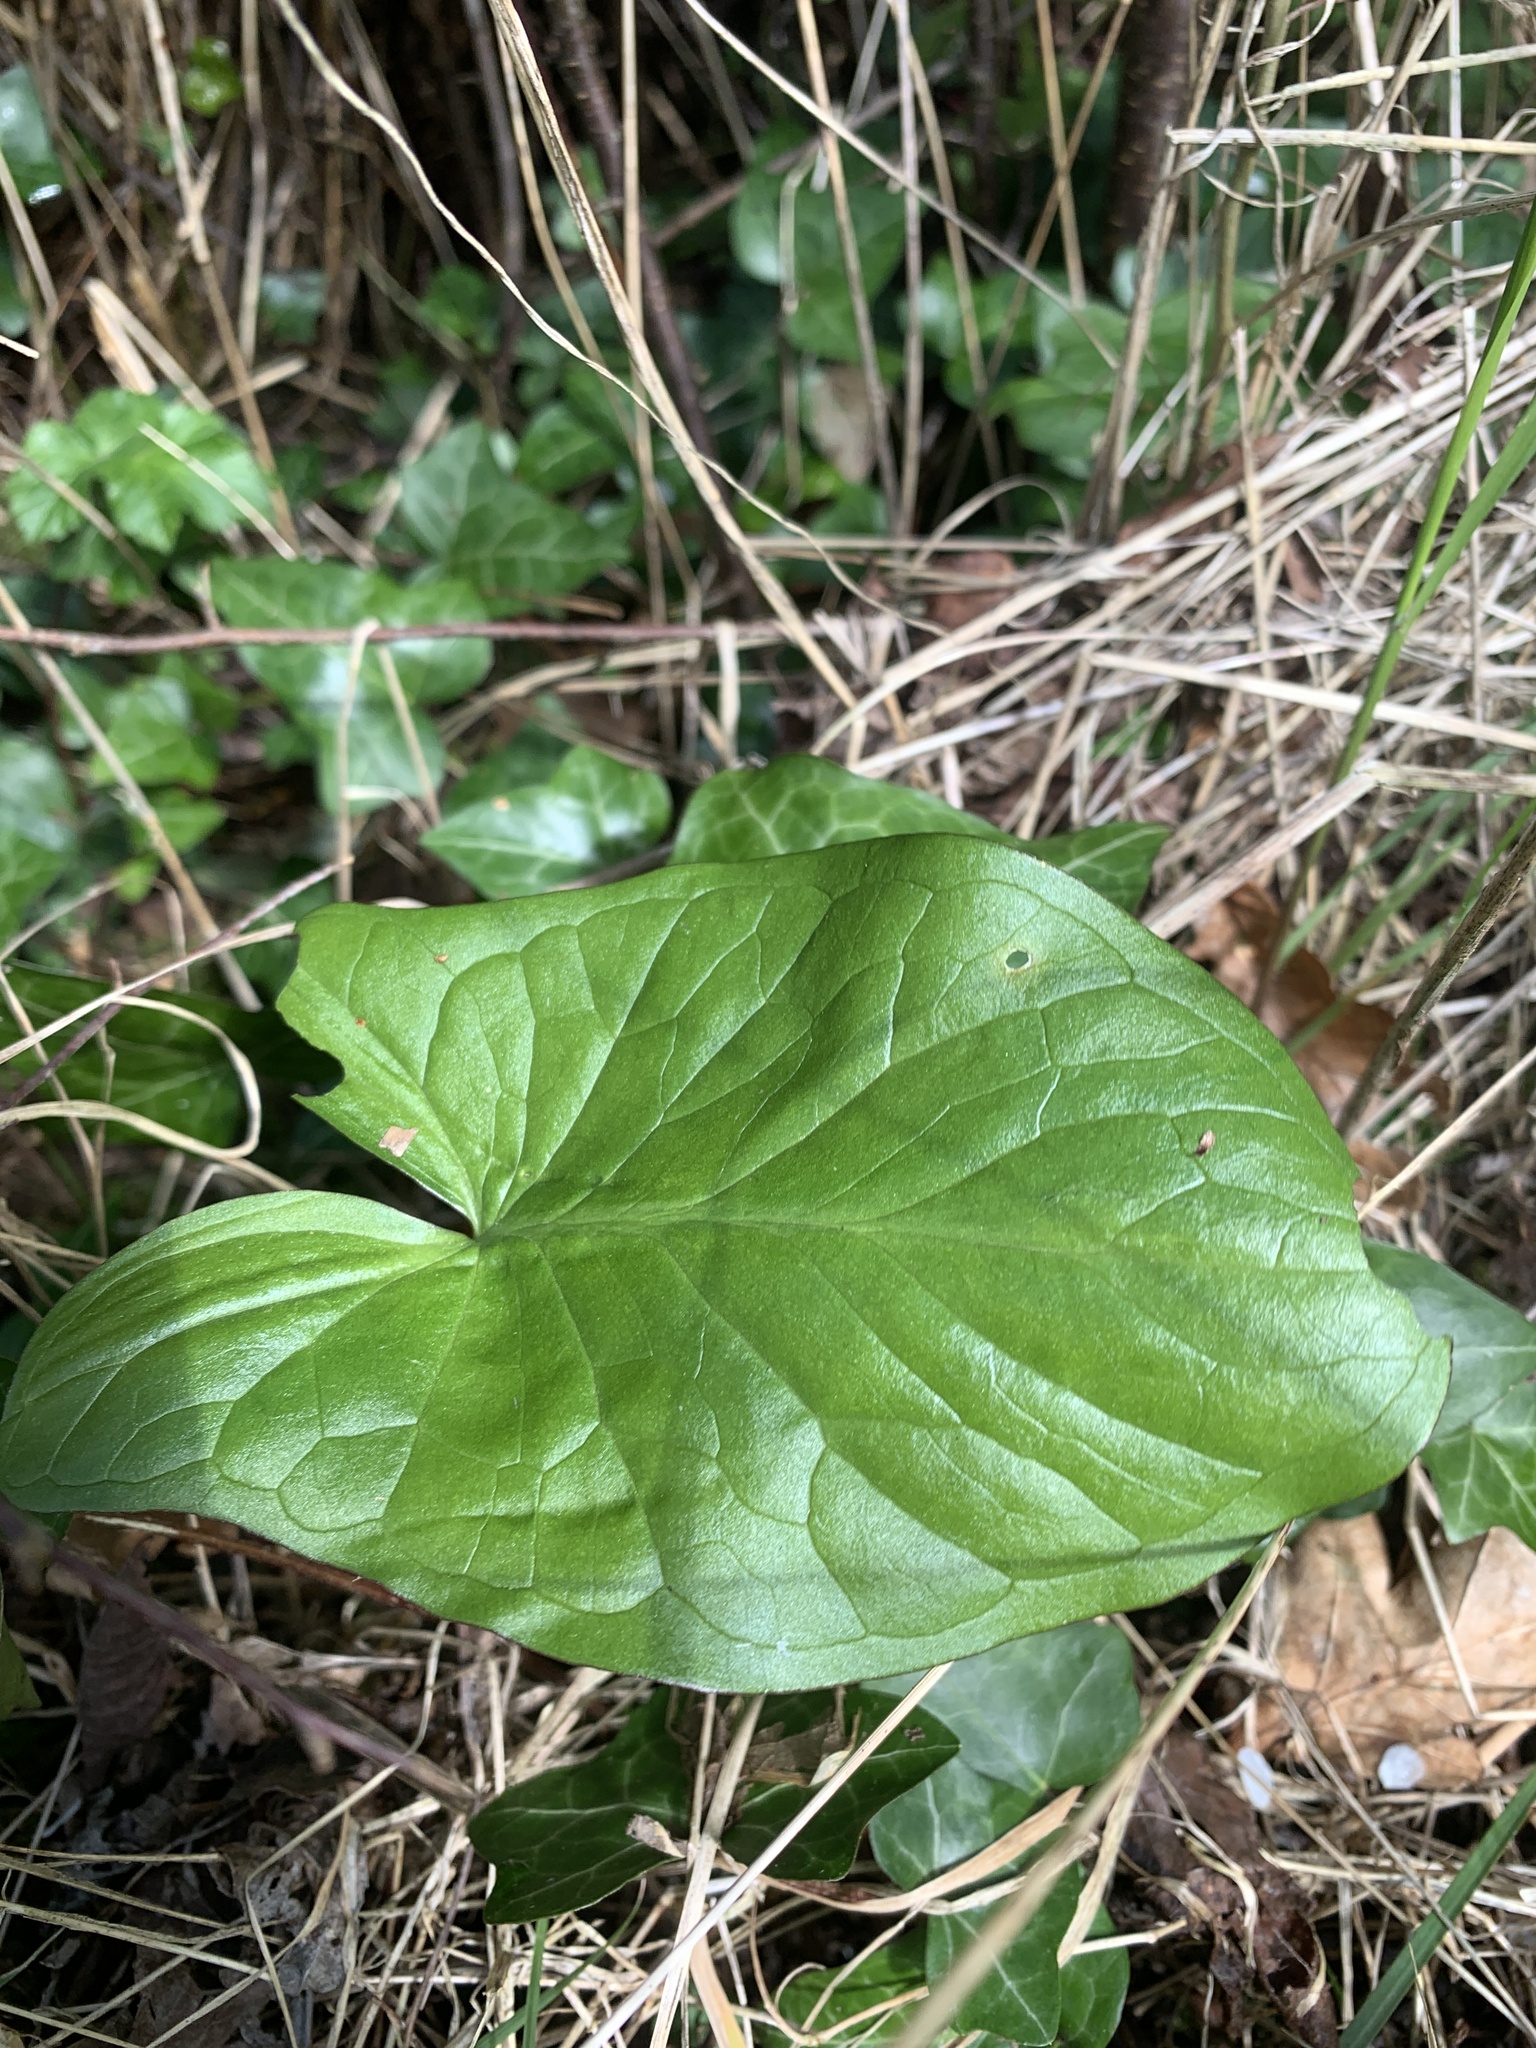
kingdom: Plantae
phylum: Tracheophyta
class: Liliopsida
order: Alismatales
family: Araceae
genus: Arum
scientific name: Arum maculatum
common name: Lords-and-ladies
